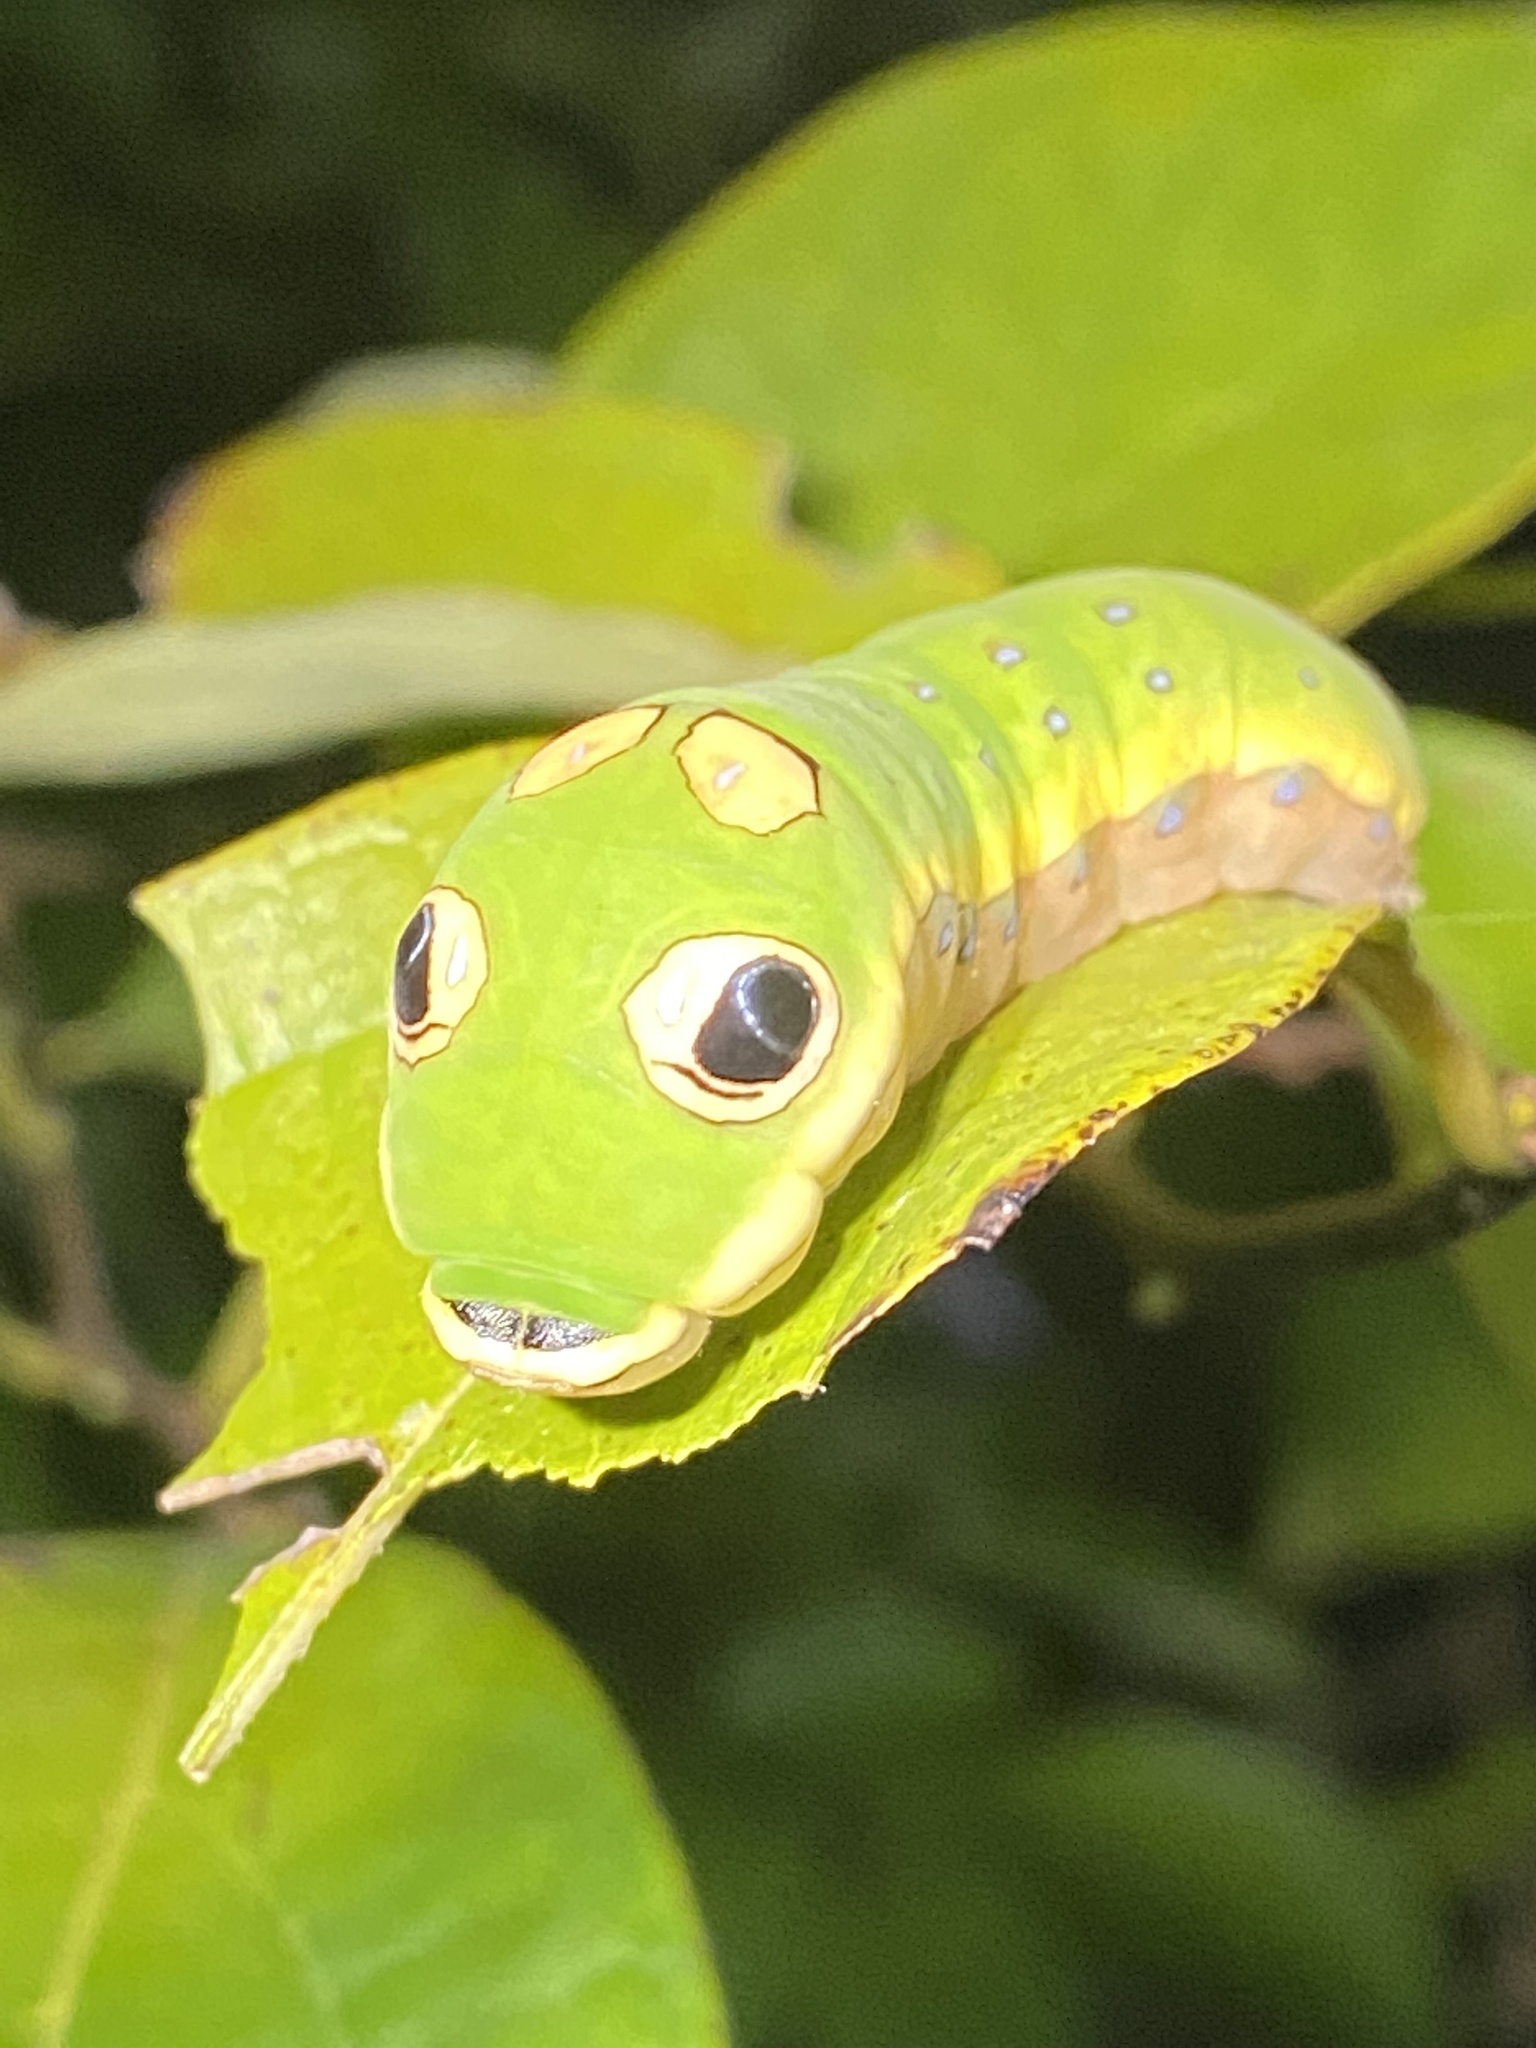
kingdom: Animalia
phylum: Arthropoda
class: Insecta
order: Lepidoptera
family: Papilionidae
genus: Papilio
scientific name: Papilio troilus
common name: Spicebush swallowtail
